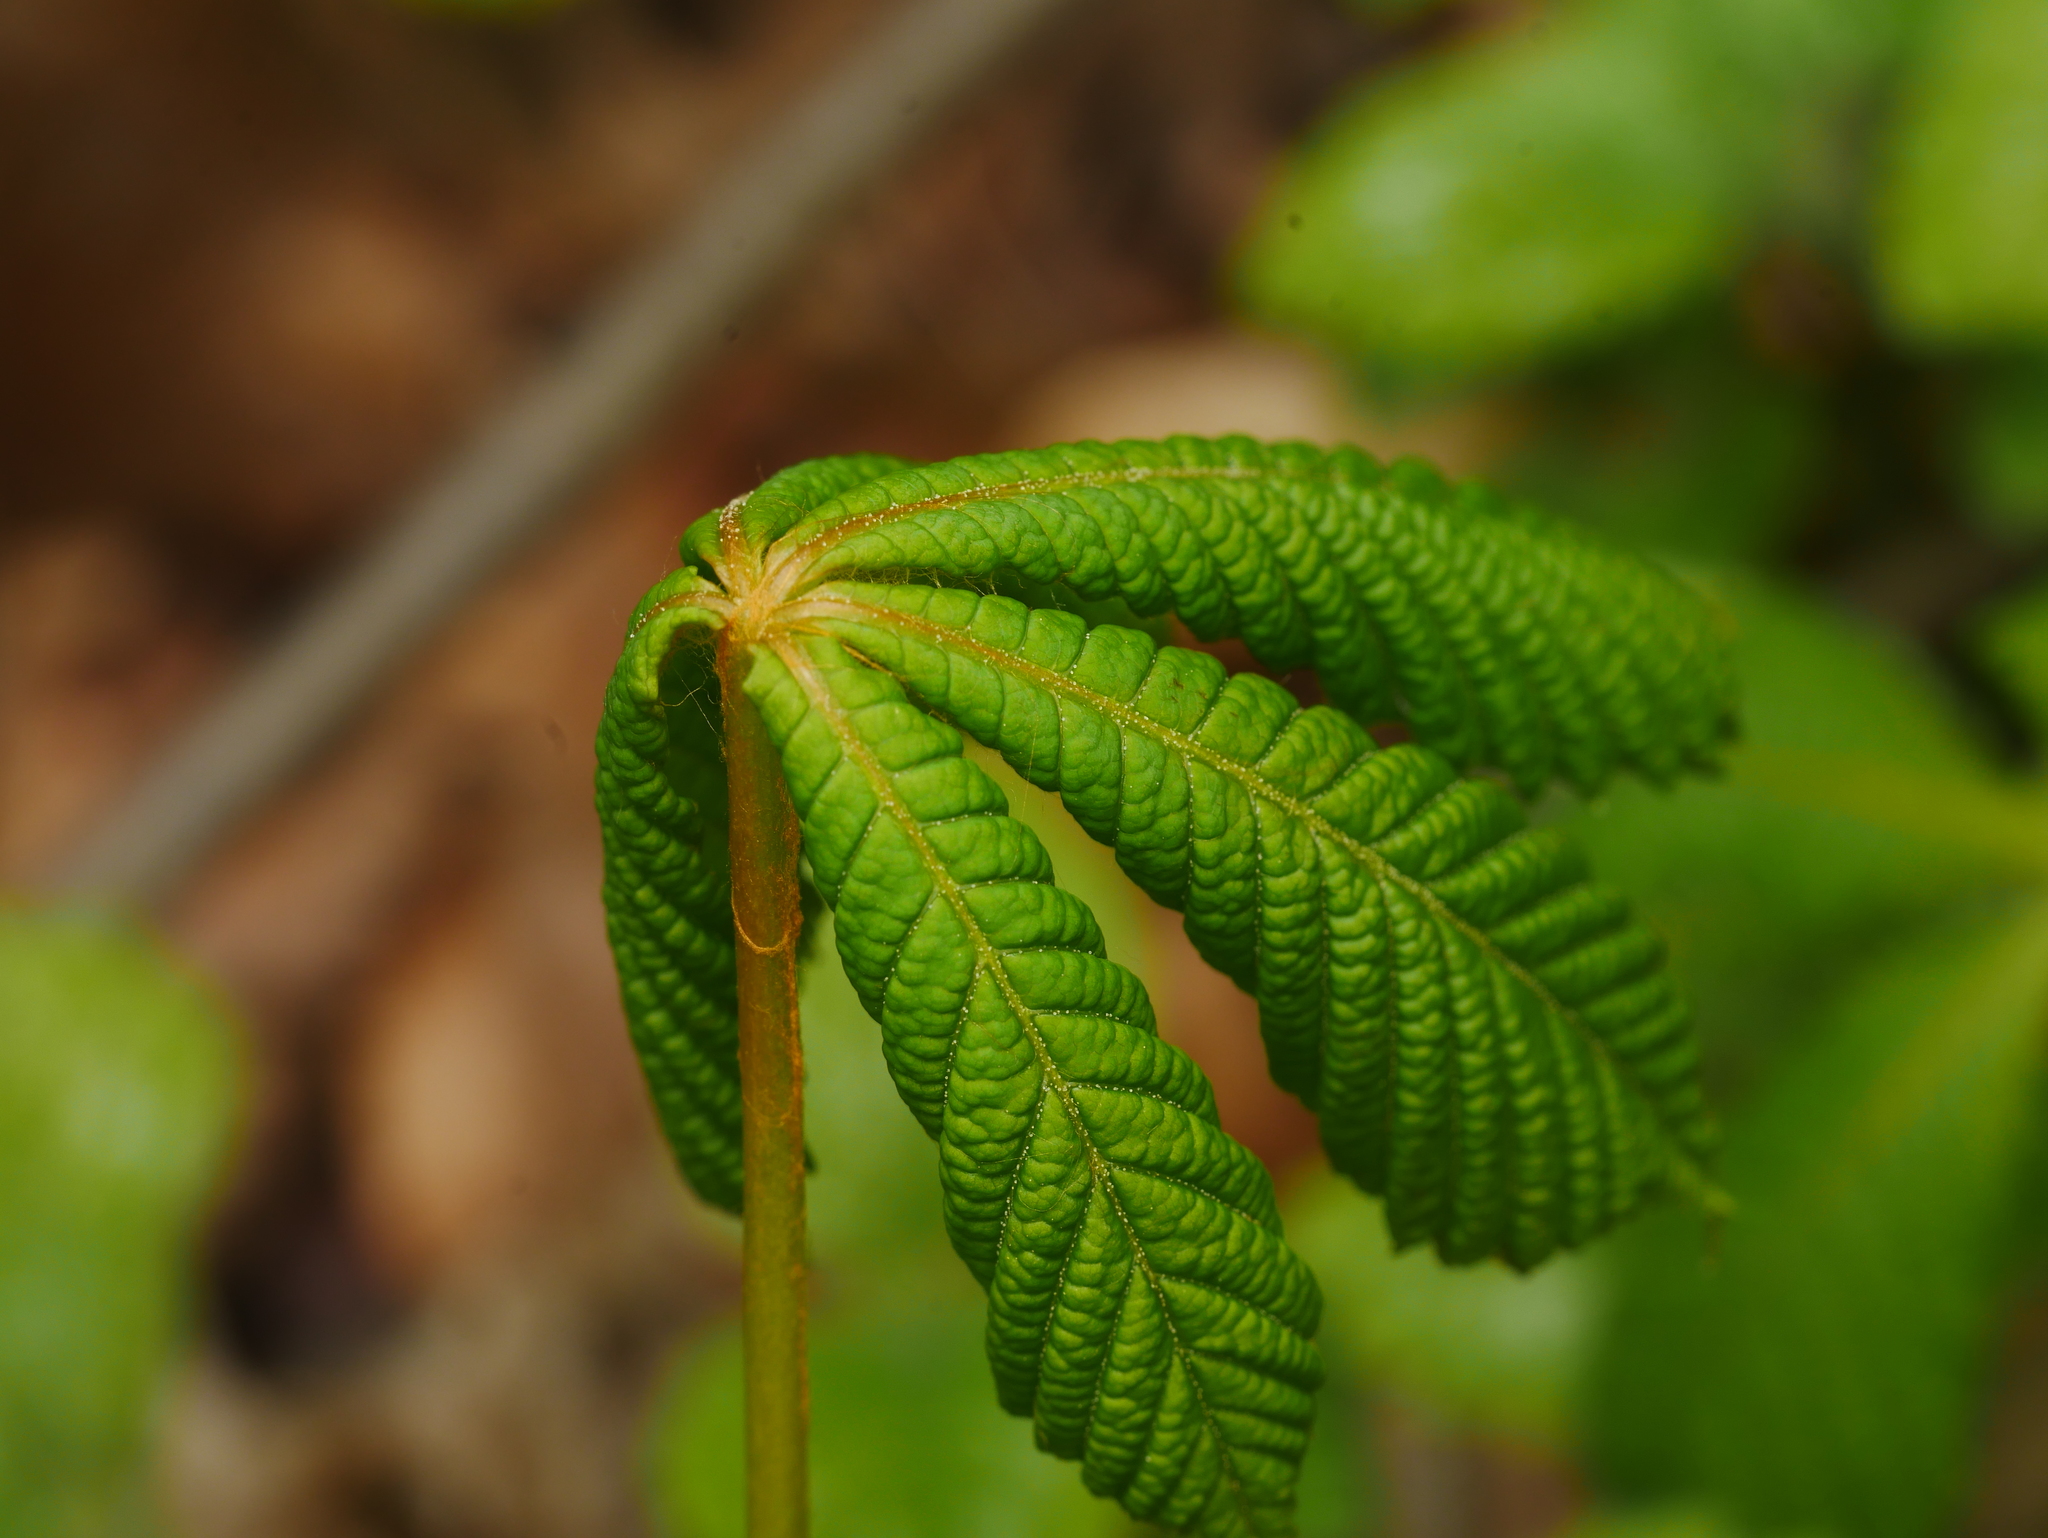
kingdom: Plantae
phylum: Tracheophyta
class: Magnoliopsida
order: Sapindales
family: Sapindaceae
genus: Aesculus
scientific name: Aesculus hippocastanum
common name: Horse-chestnut
